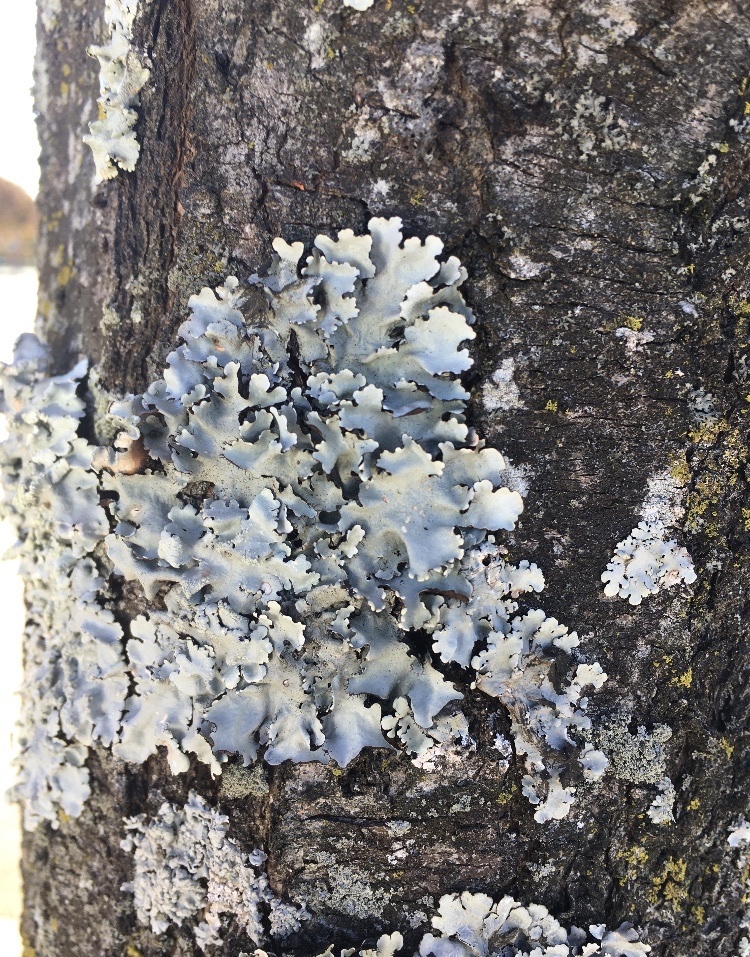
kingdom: Fungi
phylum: Ascomycota
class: Lecanoromycetes
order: Lecanorales
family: Parmeliaceae
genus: Parmotrema
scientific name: Parmotrema reticulatum
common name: Black sheet lichen
